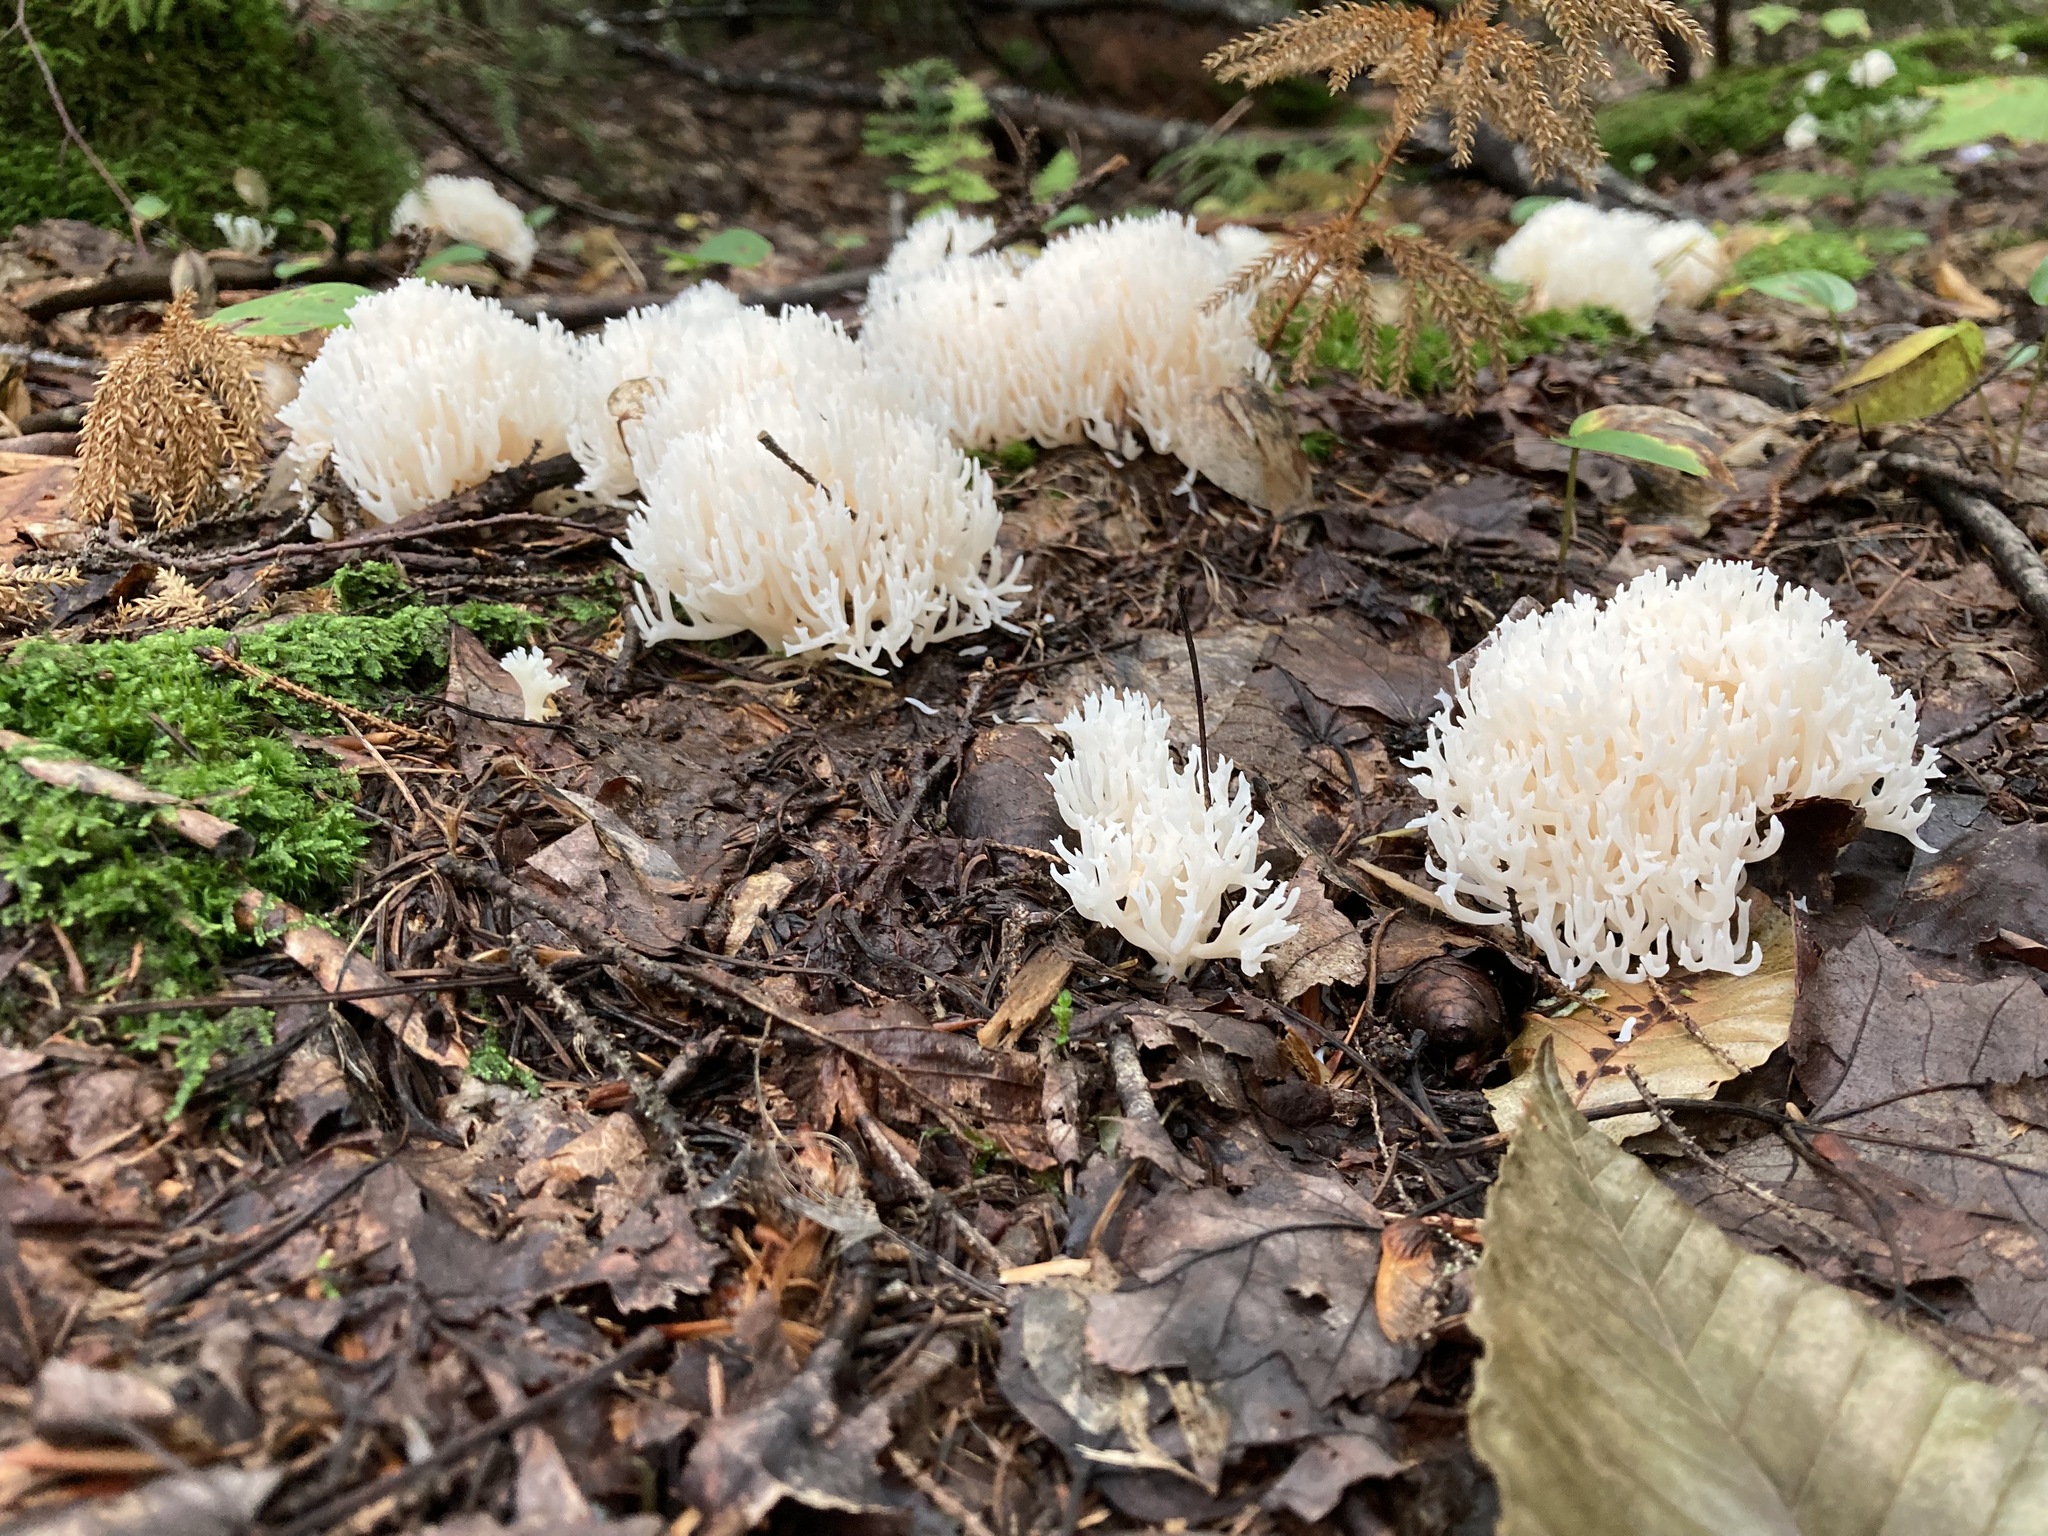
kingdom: Fungi
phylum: Basidiomycota
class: Agaricomycetes
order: Agaricales
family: Clavariaceae
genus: Ramariopsis
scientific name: Ramariopsis kunzei
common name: Ivory coral
